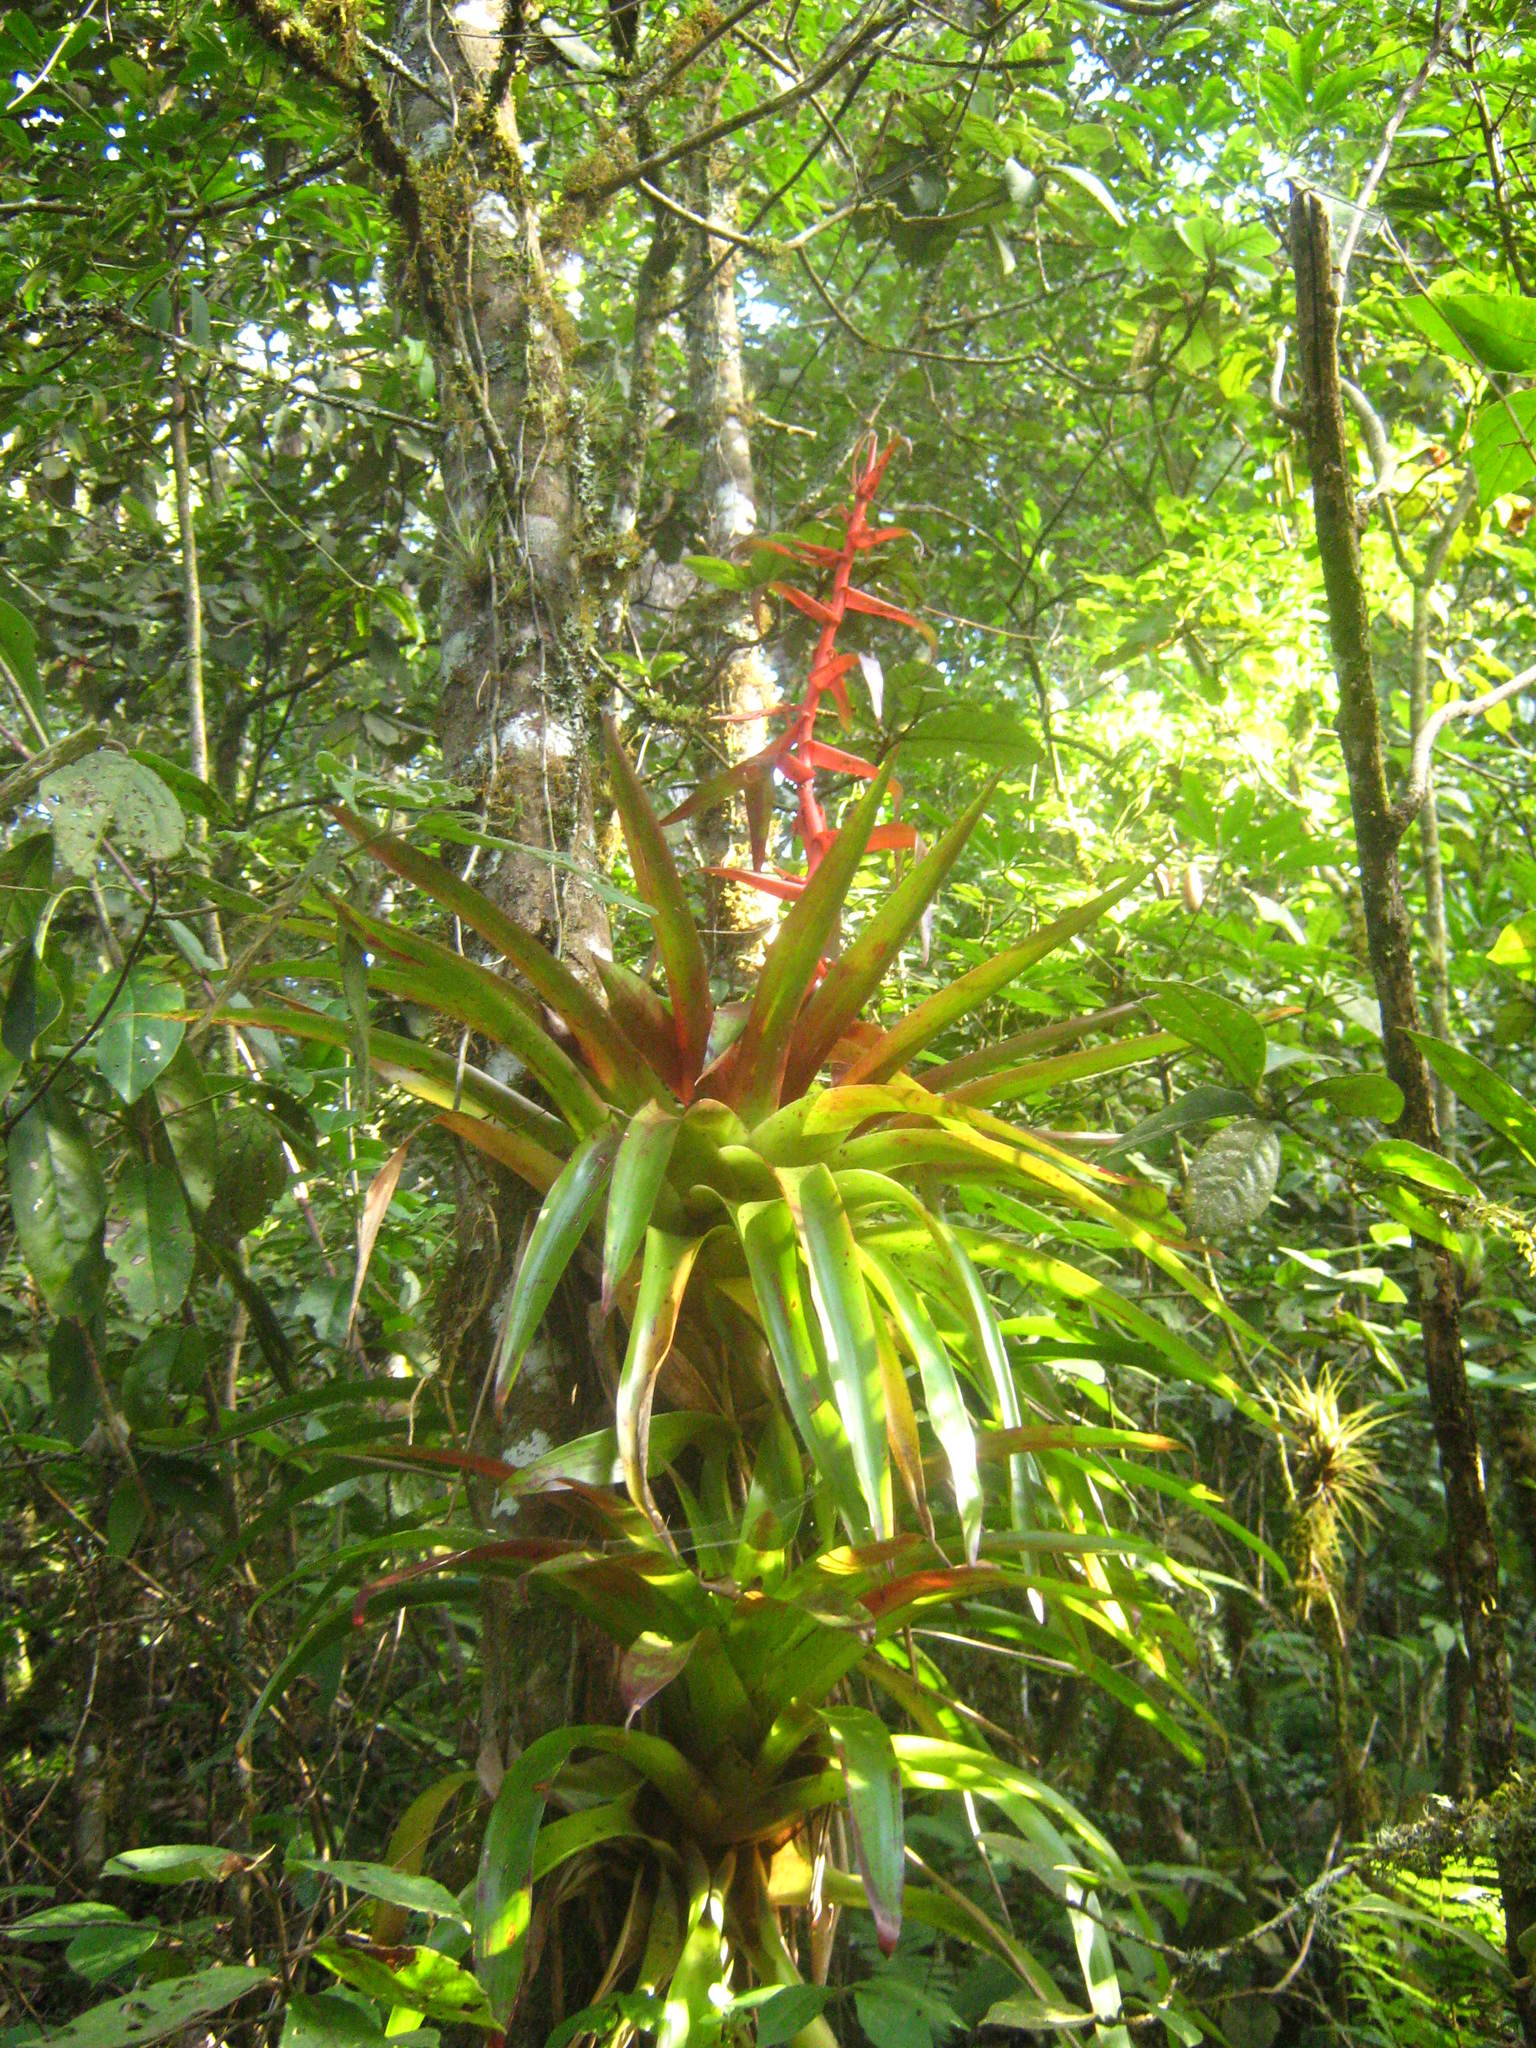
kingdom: Plantae
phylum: Tracheophyta
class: Liliopsida
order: Poales
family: Bromeliaceae
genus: Tillandsia
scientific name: Tillandsia guatemalensis
